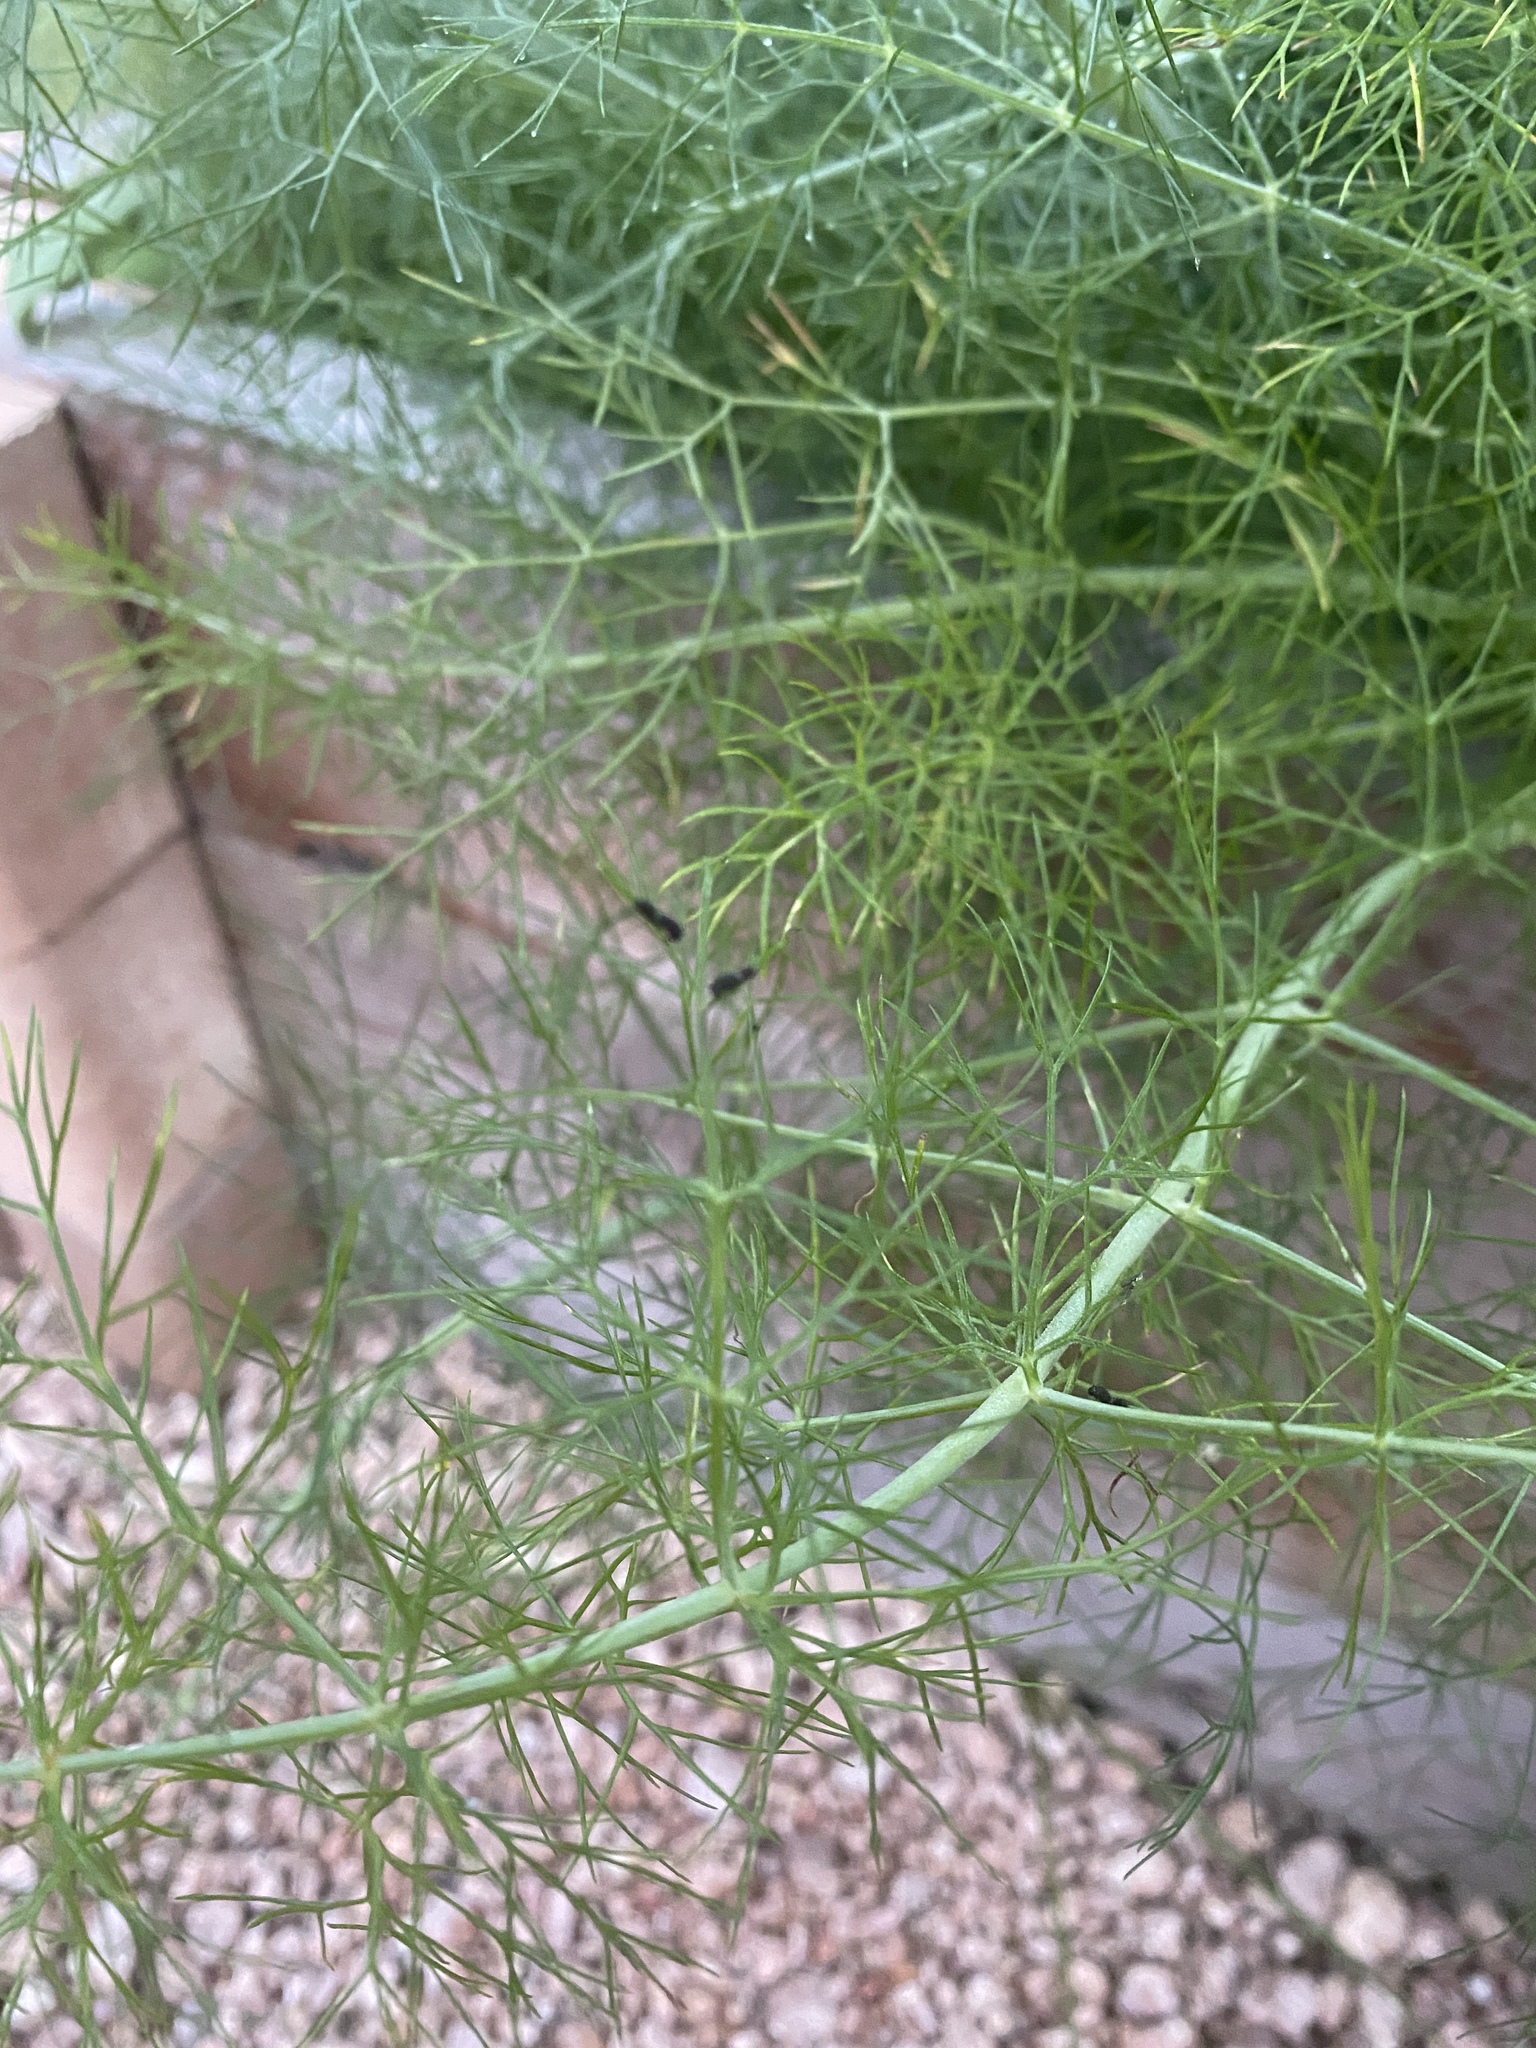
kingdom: Animalia
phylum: Arthropoda
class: Insecta
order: Lepidoptera
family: Papilionidae
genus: Papilio
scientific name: Papilio polyxenes
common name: Black swallowtail
